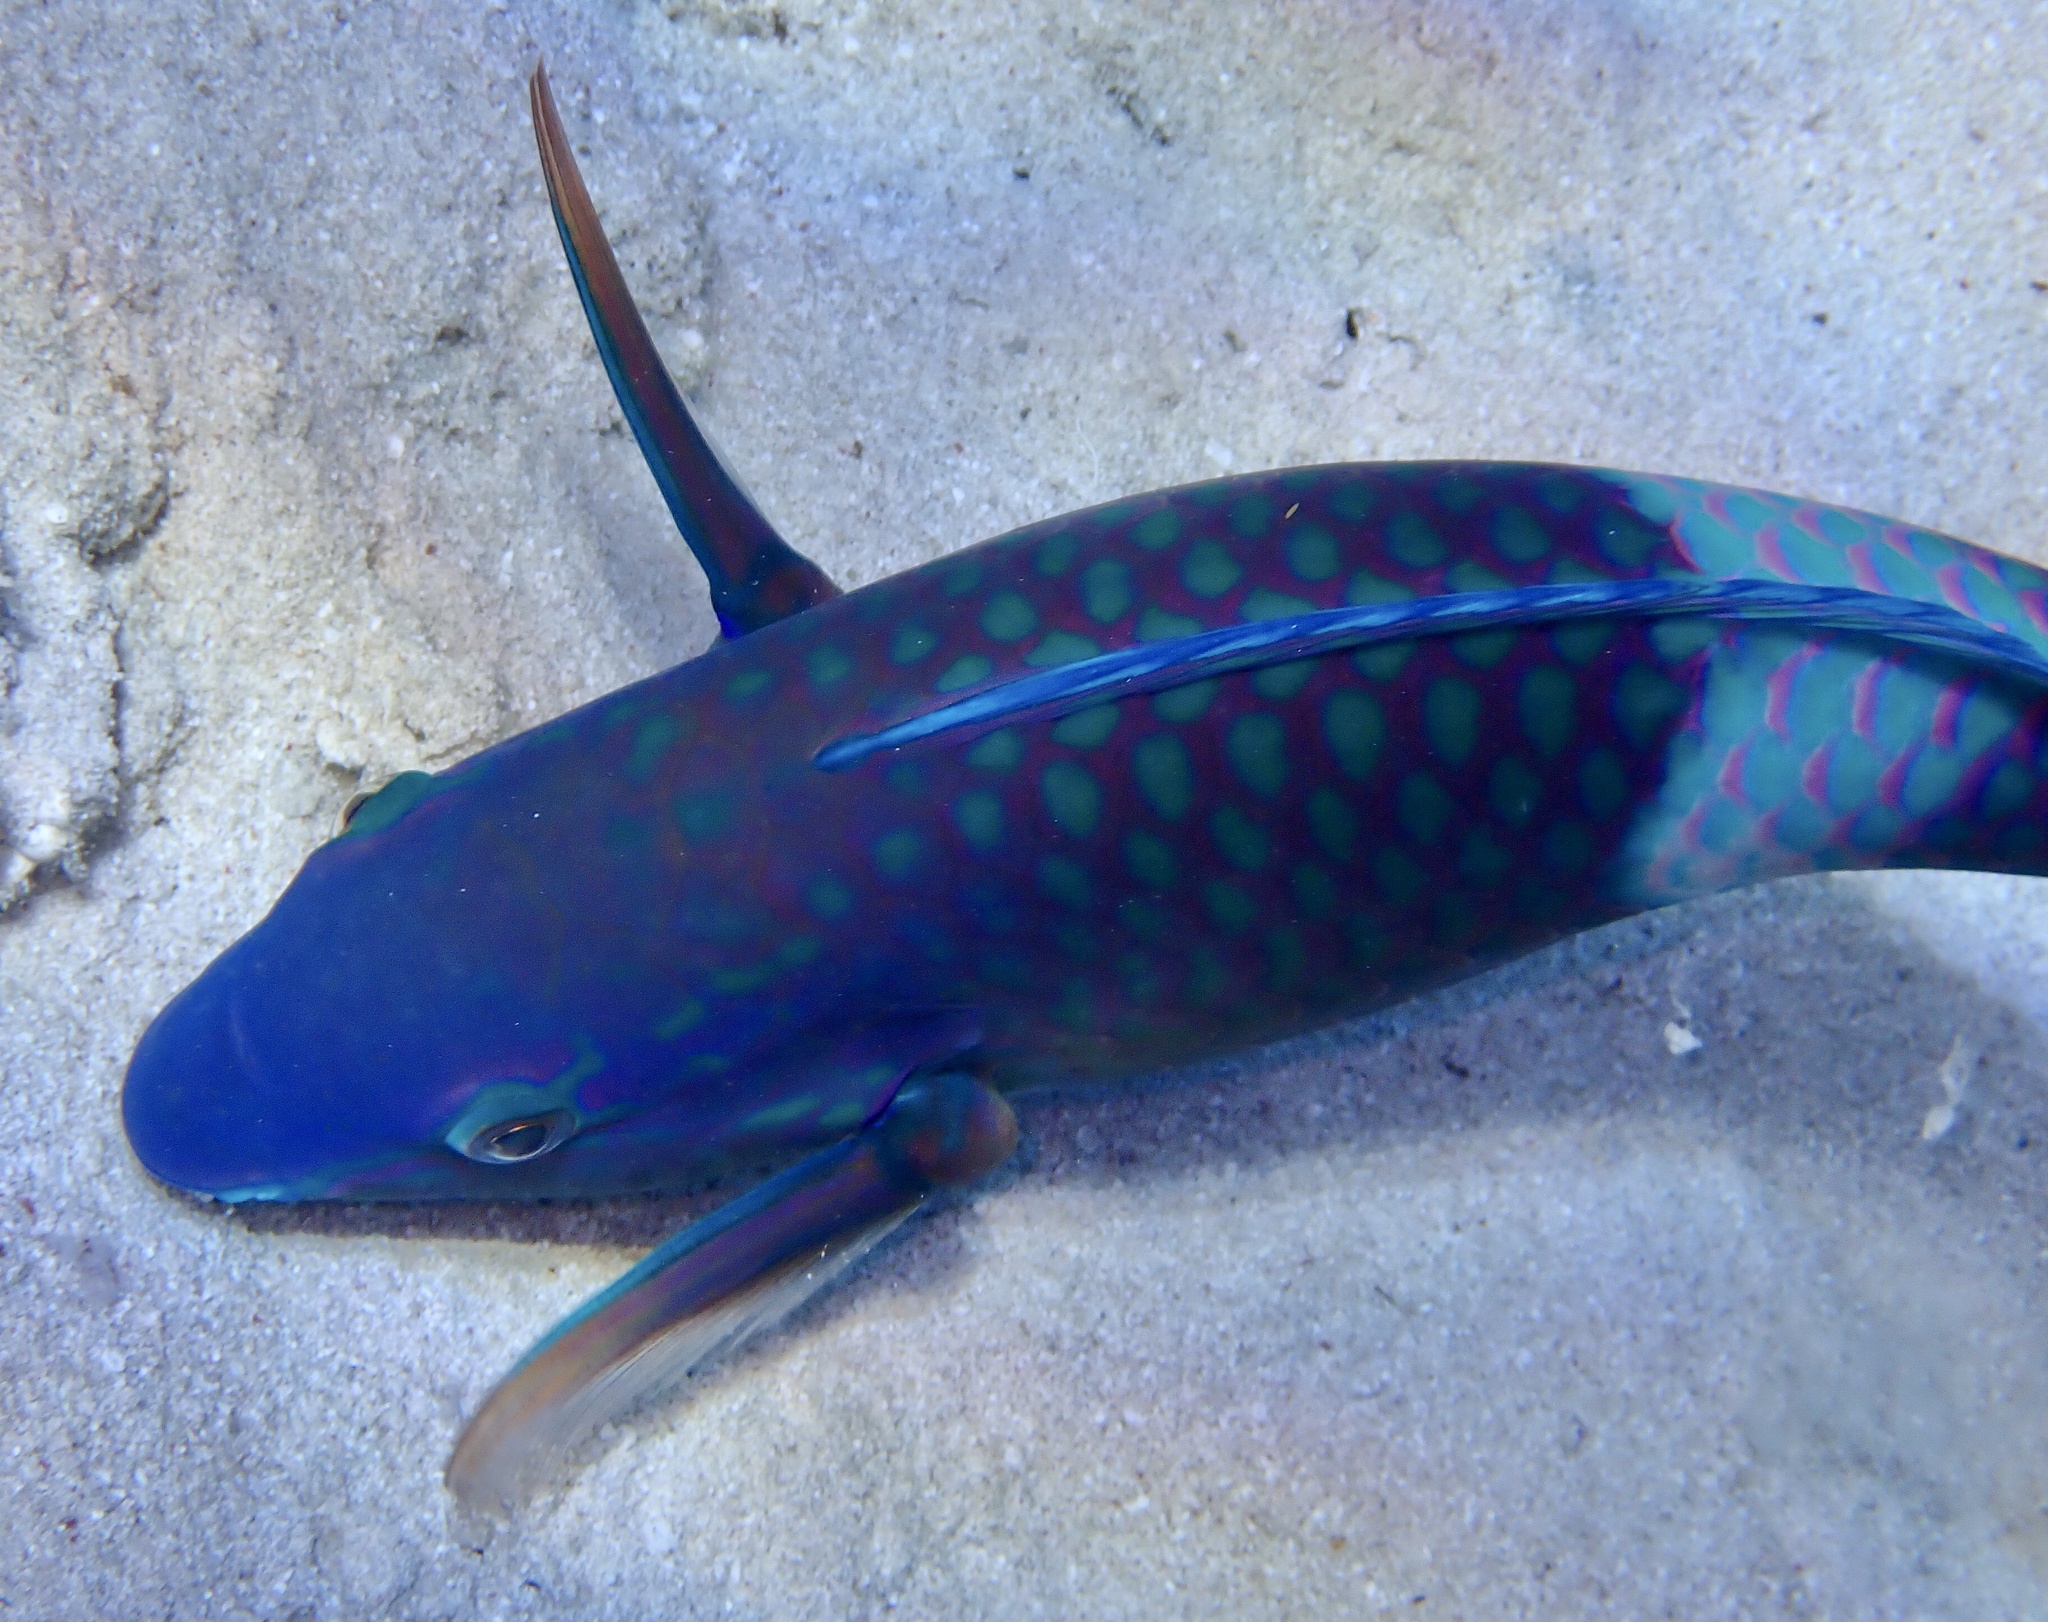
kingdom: Animalia
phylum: Chordata
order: Perciformes
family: Scaridae
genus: Scarus
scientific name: Scarus fuscopurpureus
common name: Purple-brown parrotfish
